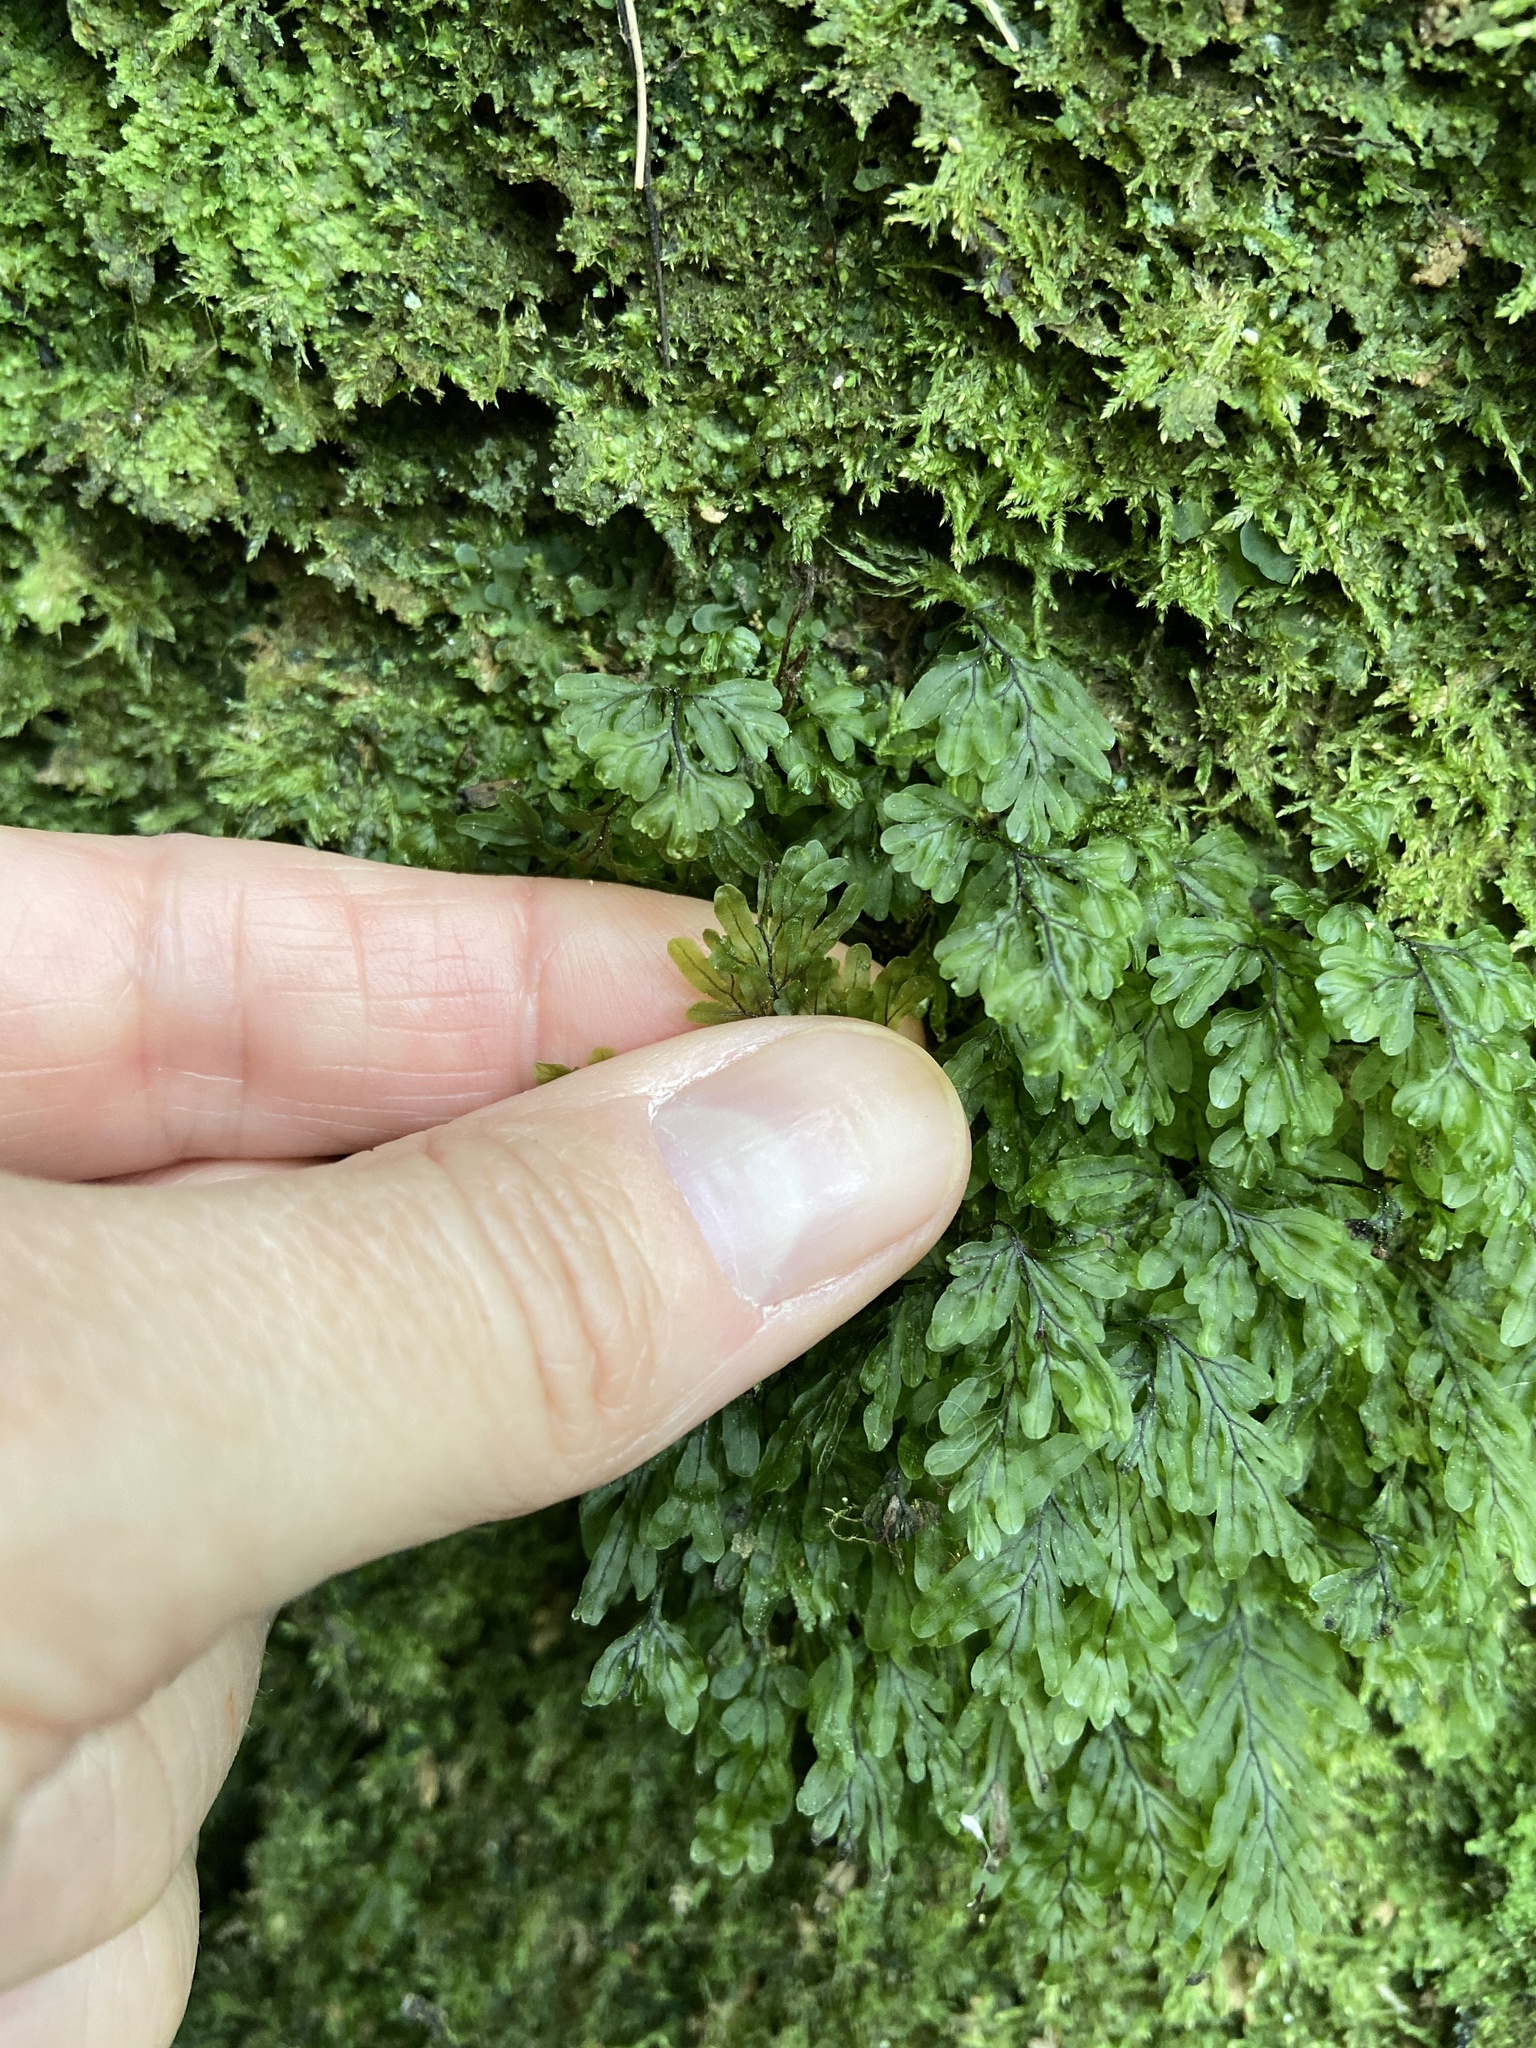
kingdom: Plantae
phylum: Tracheophyta
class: Polypodiopsida
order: Hymenophyllales
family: Hymenophyllaceae
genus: Hymenophyllum
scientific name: Hymenophyllum rarum
